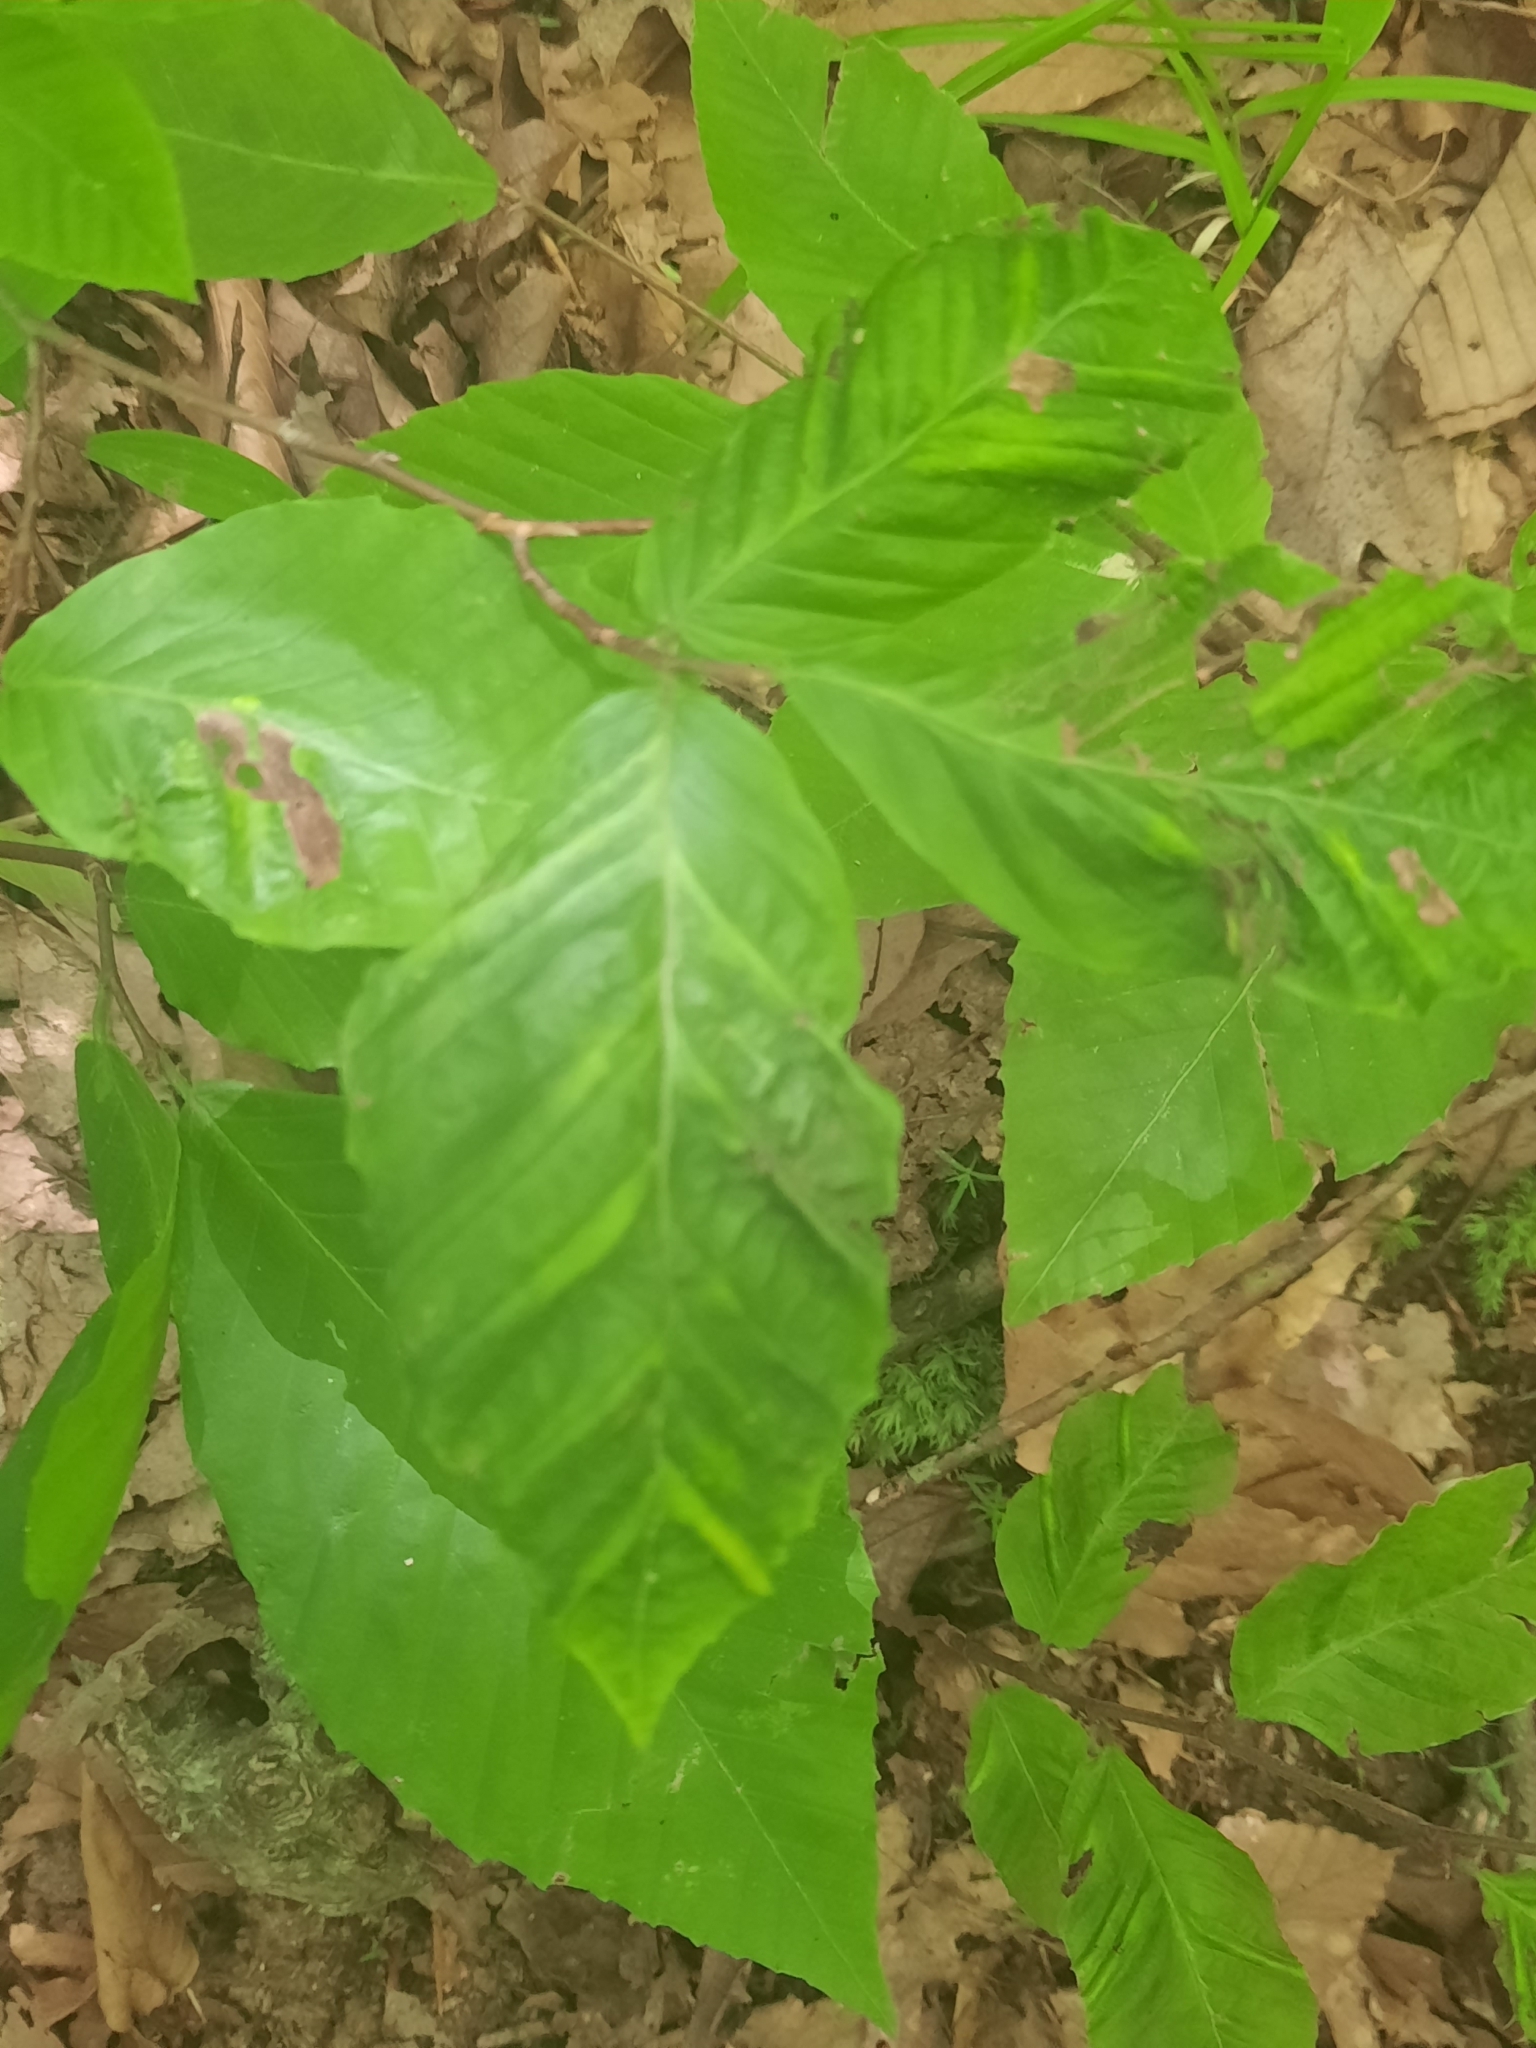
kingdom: Animalia
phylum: Nematoda
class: Chromadorea
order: Rhabditida
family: Anguinidae
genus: Litylenchus
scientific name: Litylenchus crenatae
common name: Beech leaf disease
